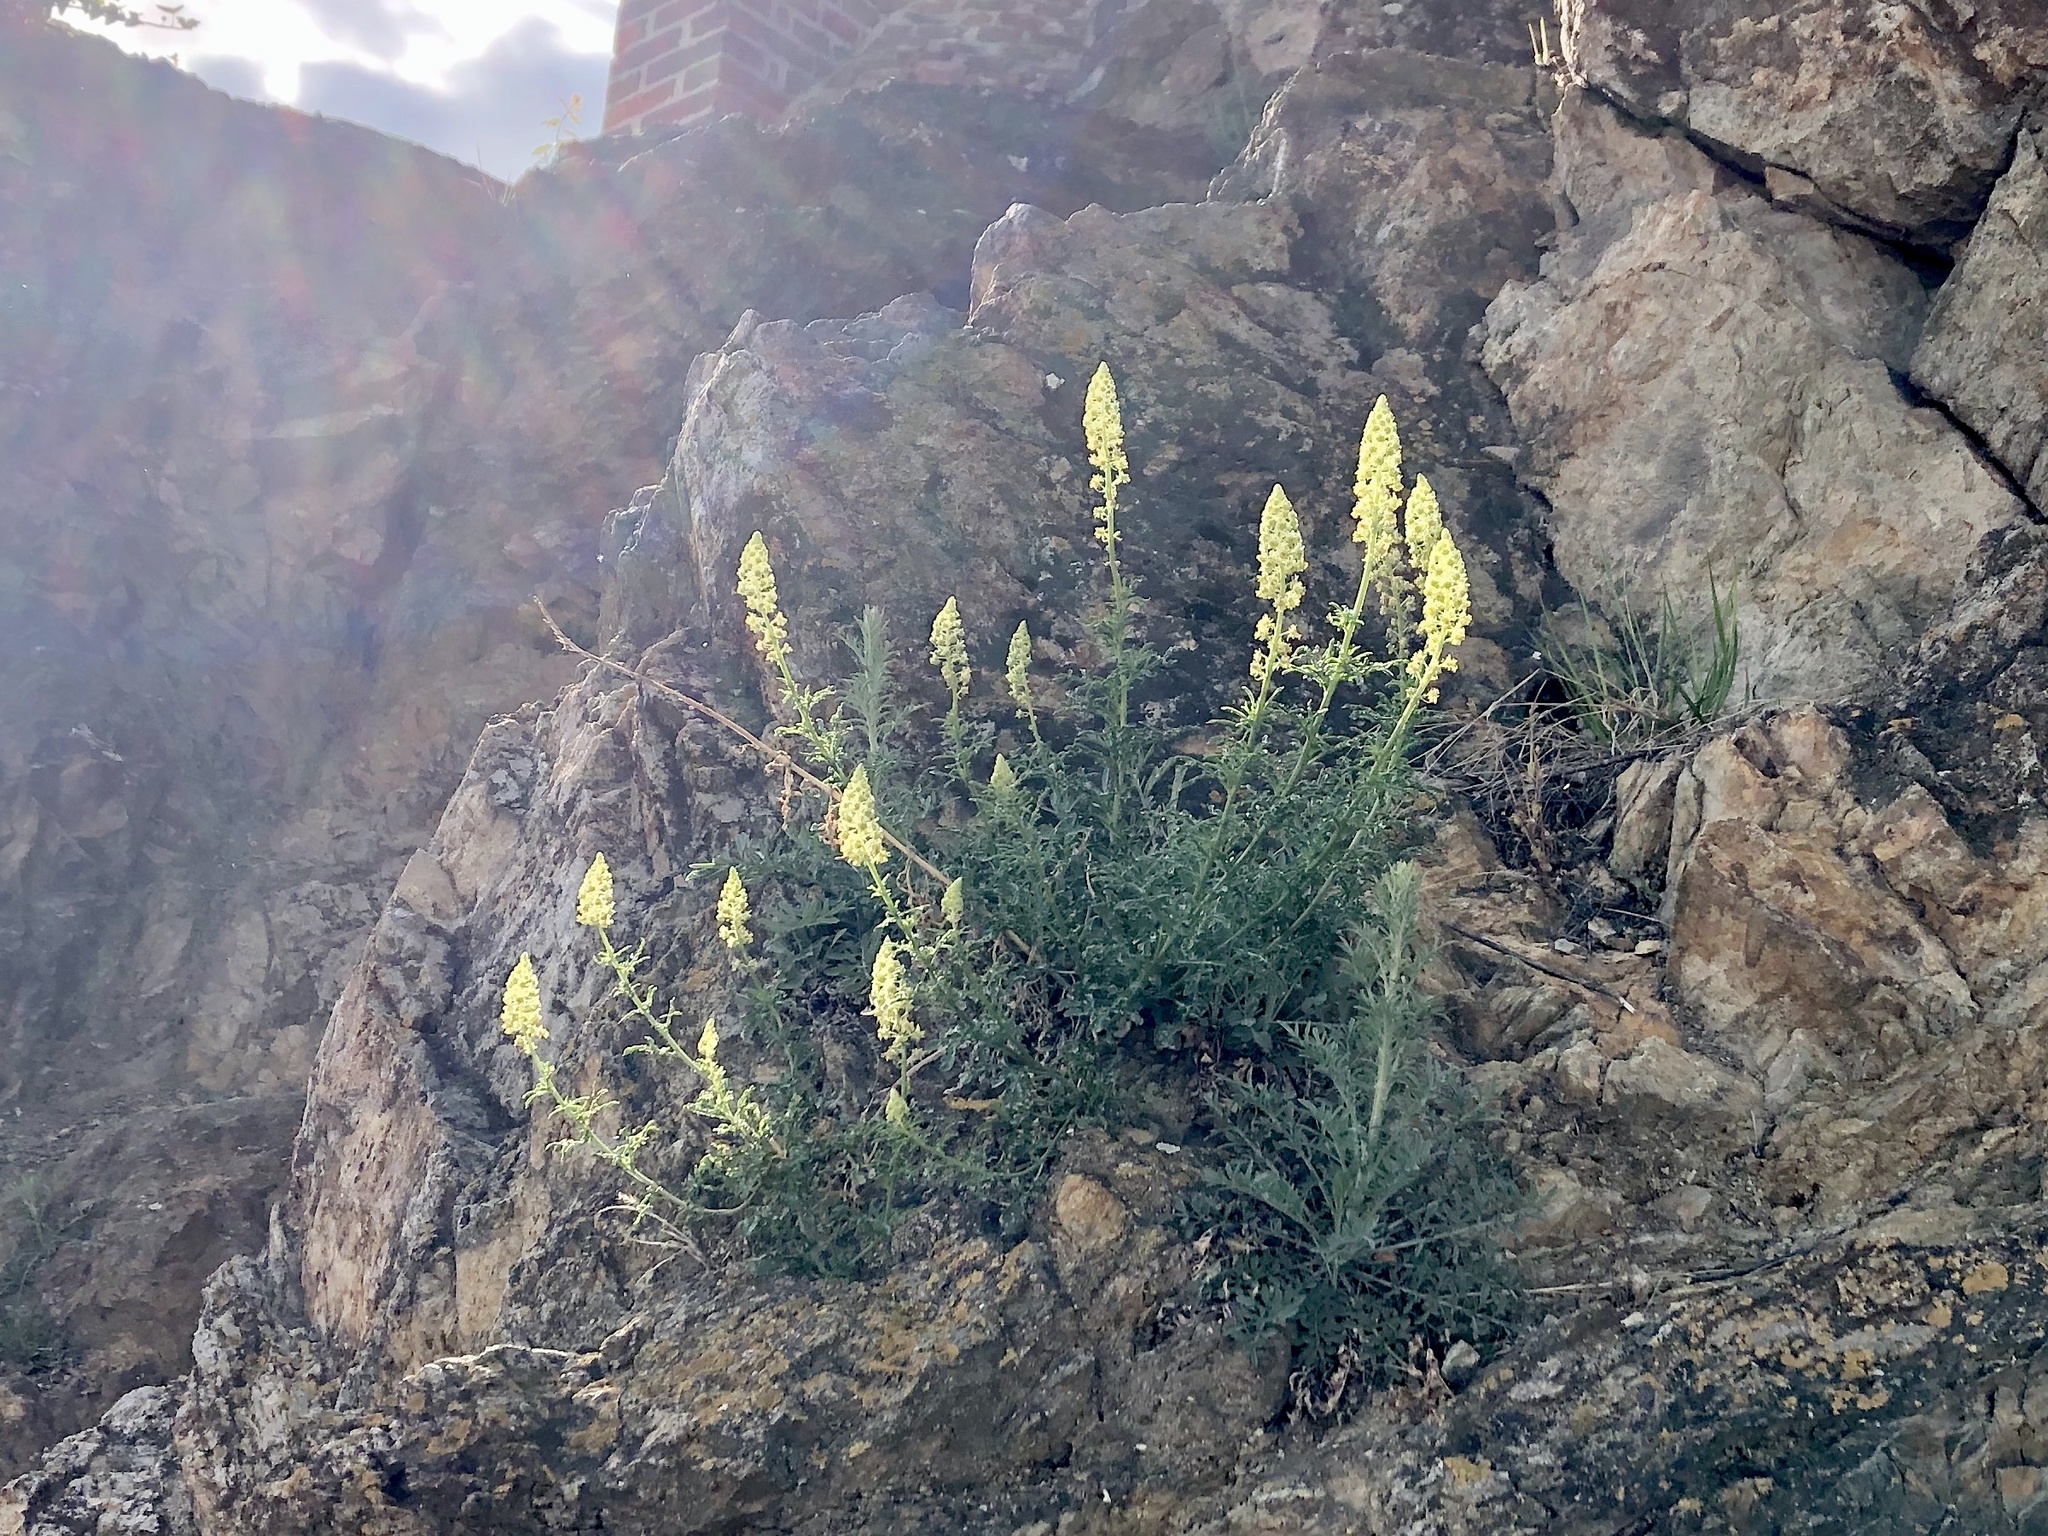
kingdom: Plantae
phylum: Tracheophyta
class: Magnoliopsida
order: Brassicales
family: Resedaceae
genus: Reseda
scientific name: Reseda lutea
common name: Wild mignonette
